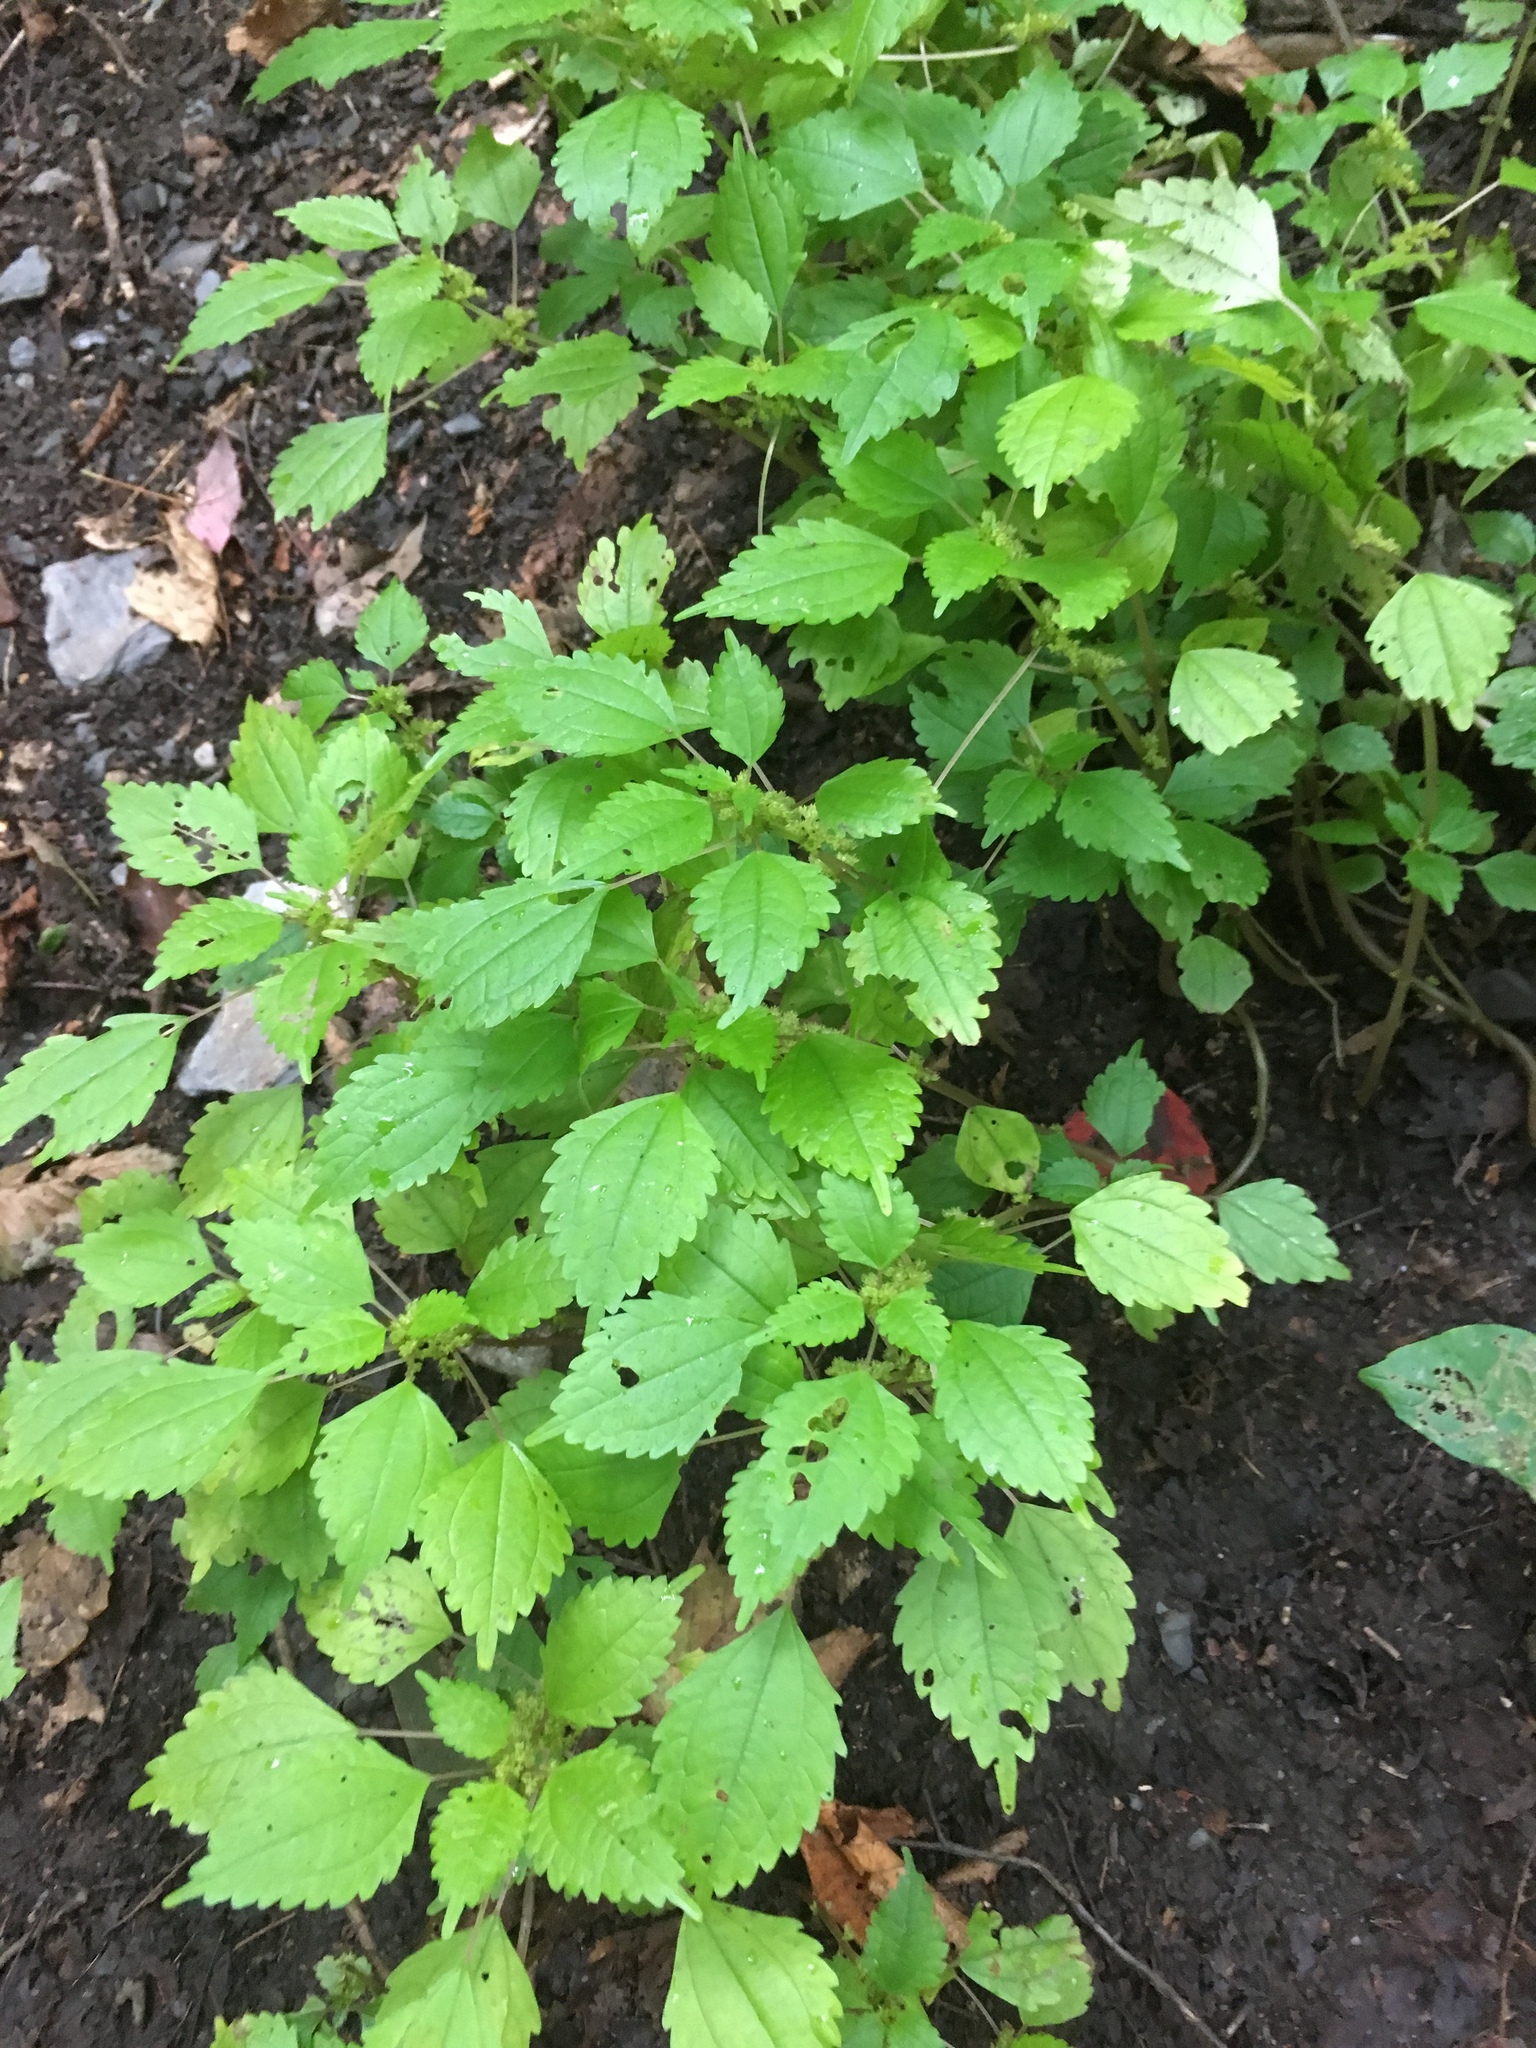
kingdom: Plantae
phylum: Tracheophyta
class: Magnoliopsida
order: Rosales
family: Urticaceae
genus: Pilea
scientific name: Pilea pumila
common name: Clearweed
